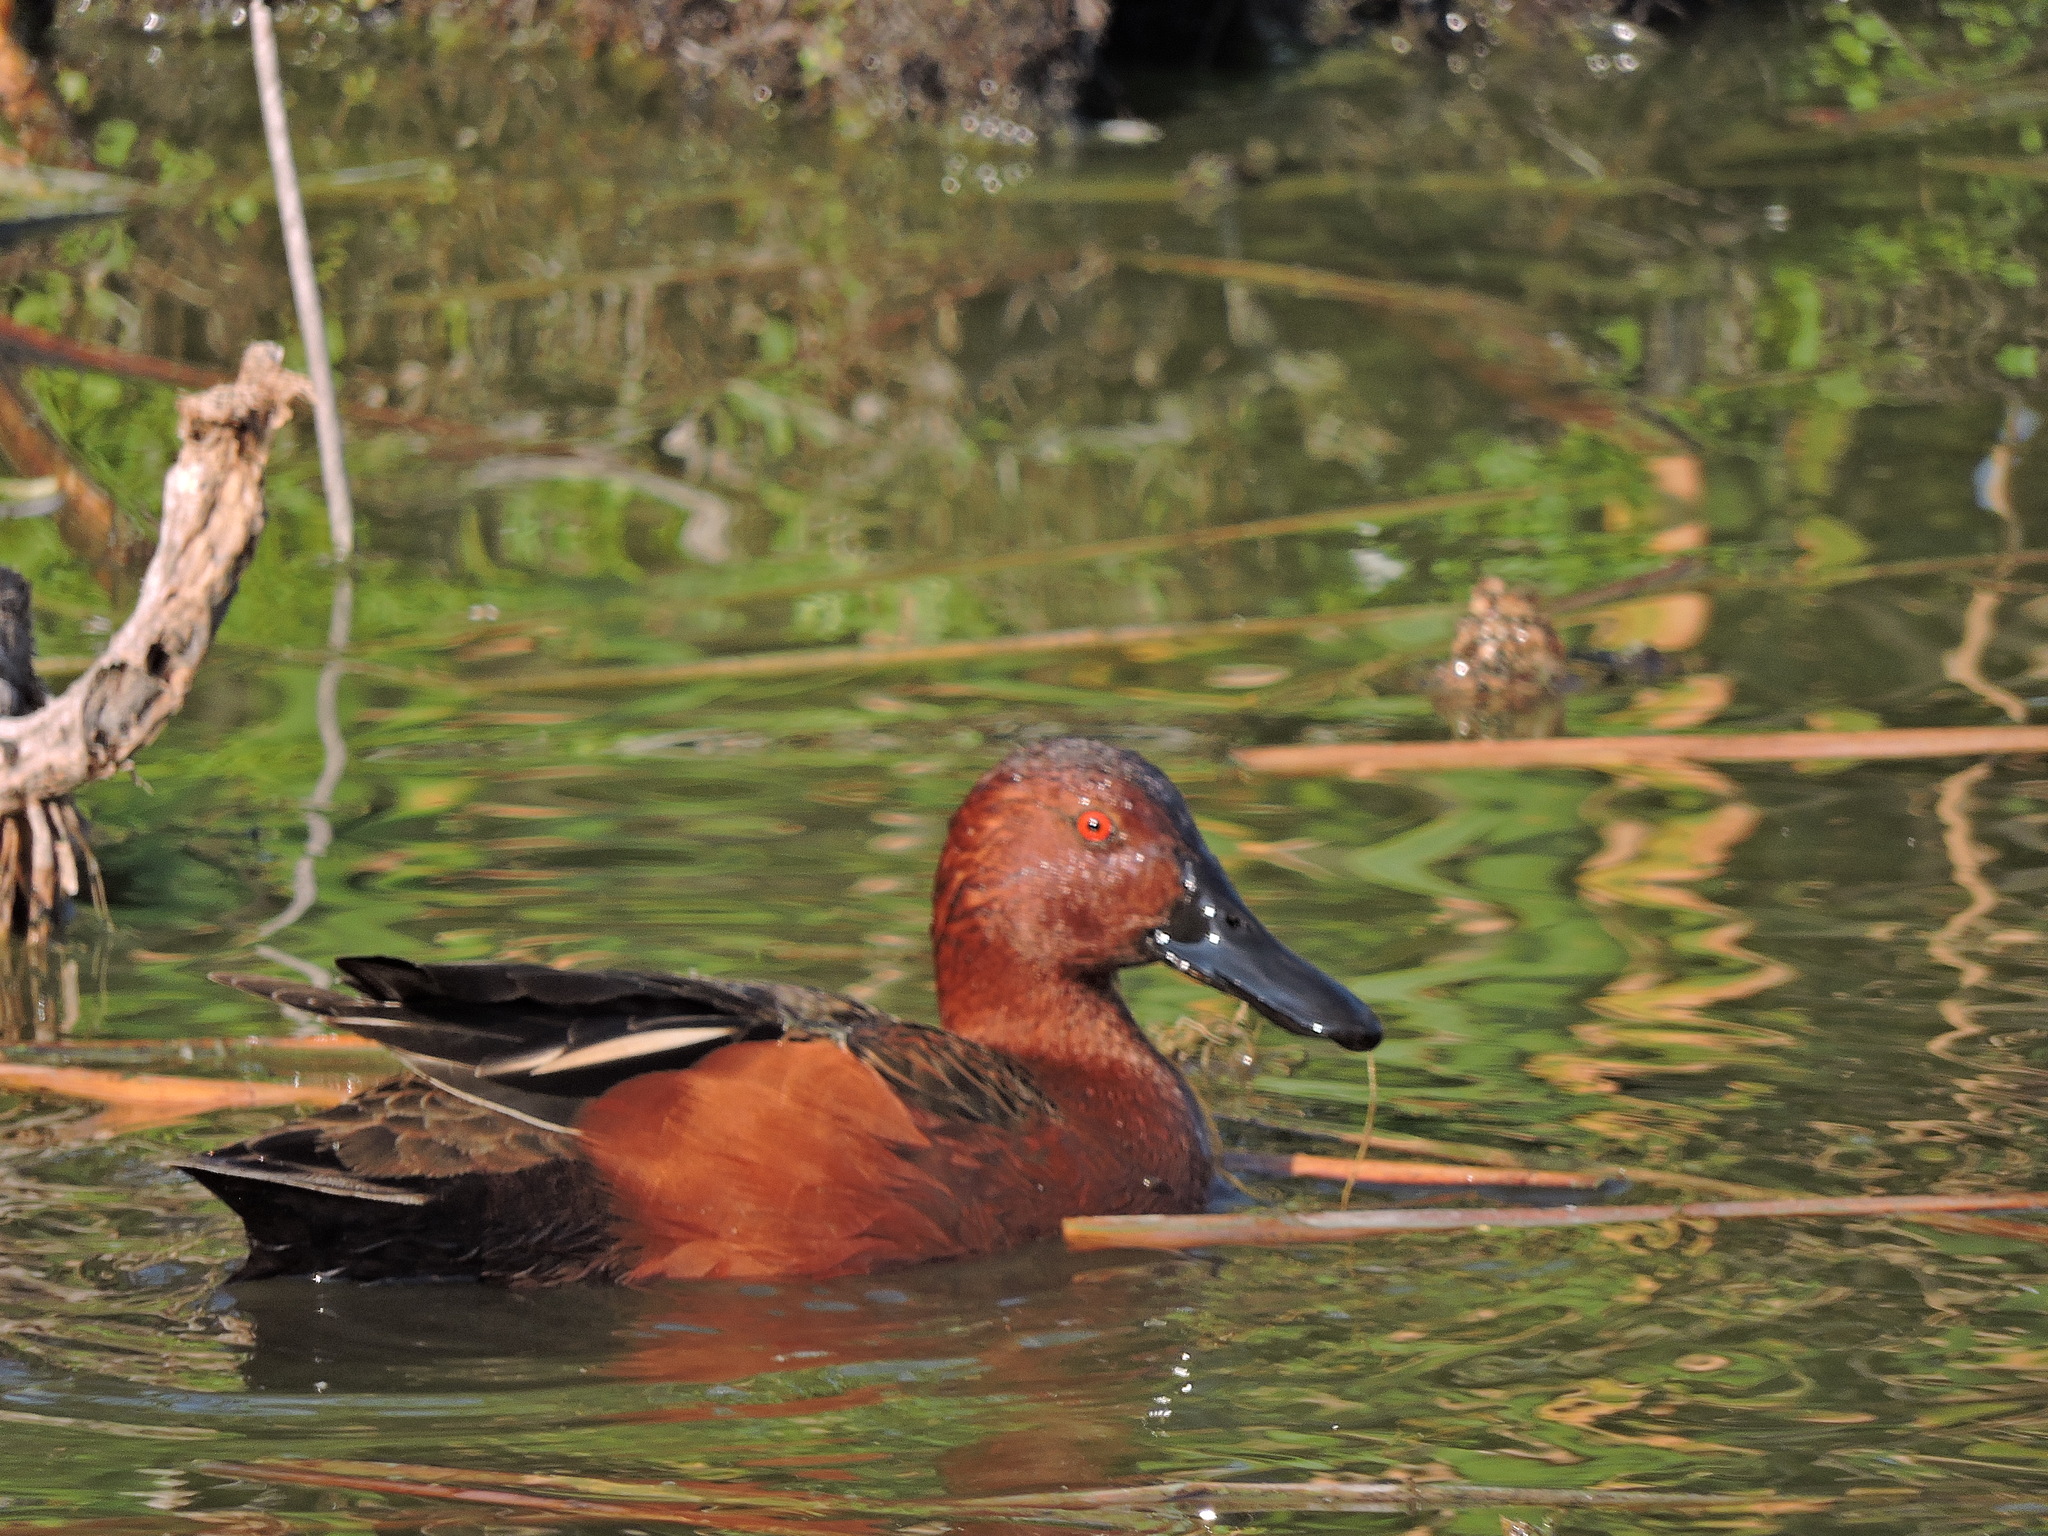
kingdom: Animalia
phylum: Chordata
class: Aves
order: Anseriformes
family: Anatidae
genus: Spatula
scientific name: Spatula cyanoptera
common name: Cinnamon teal
